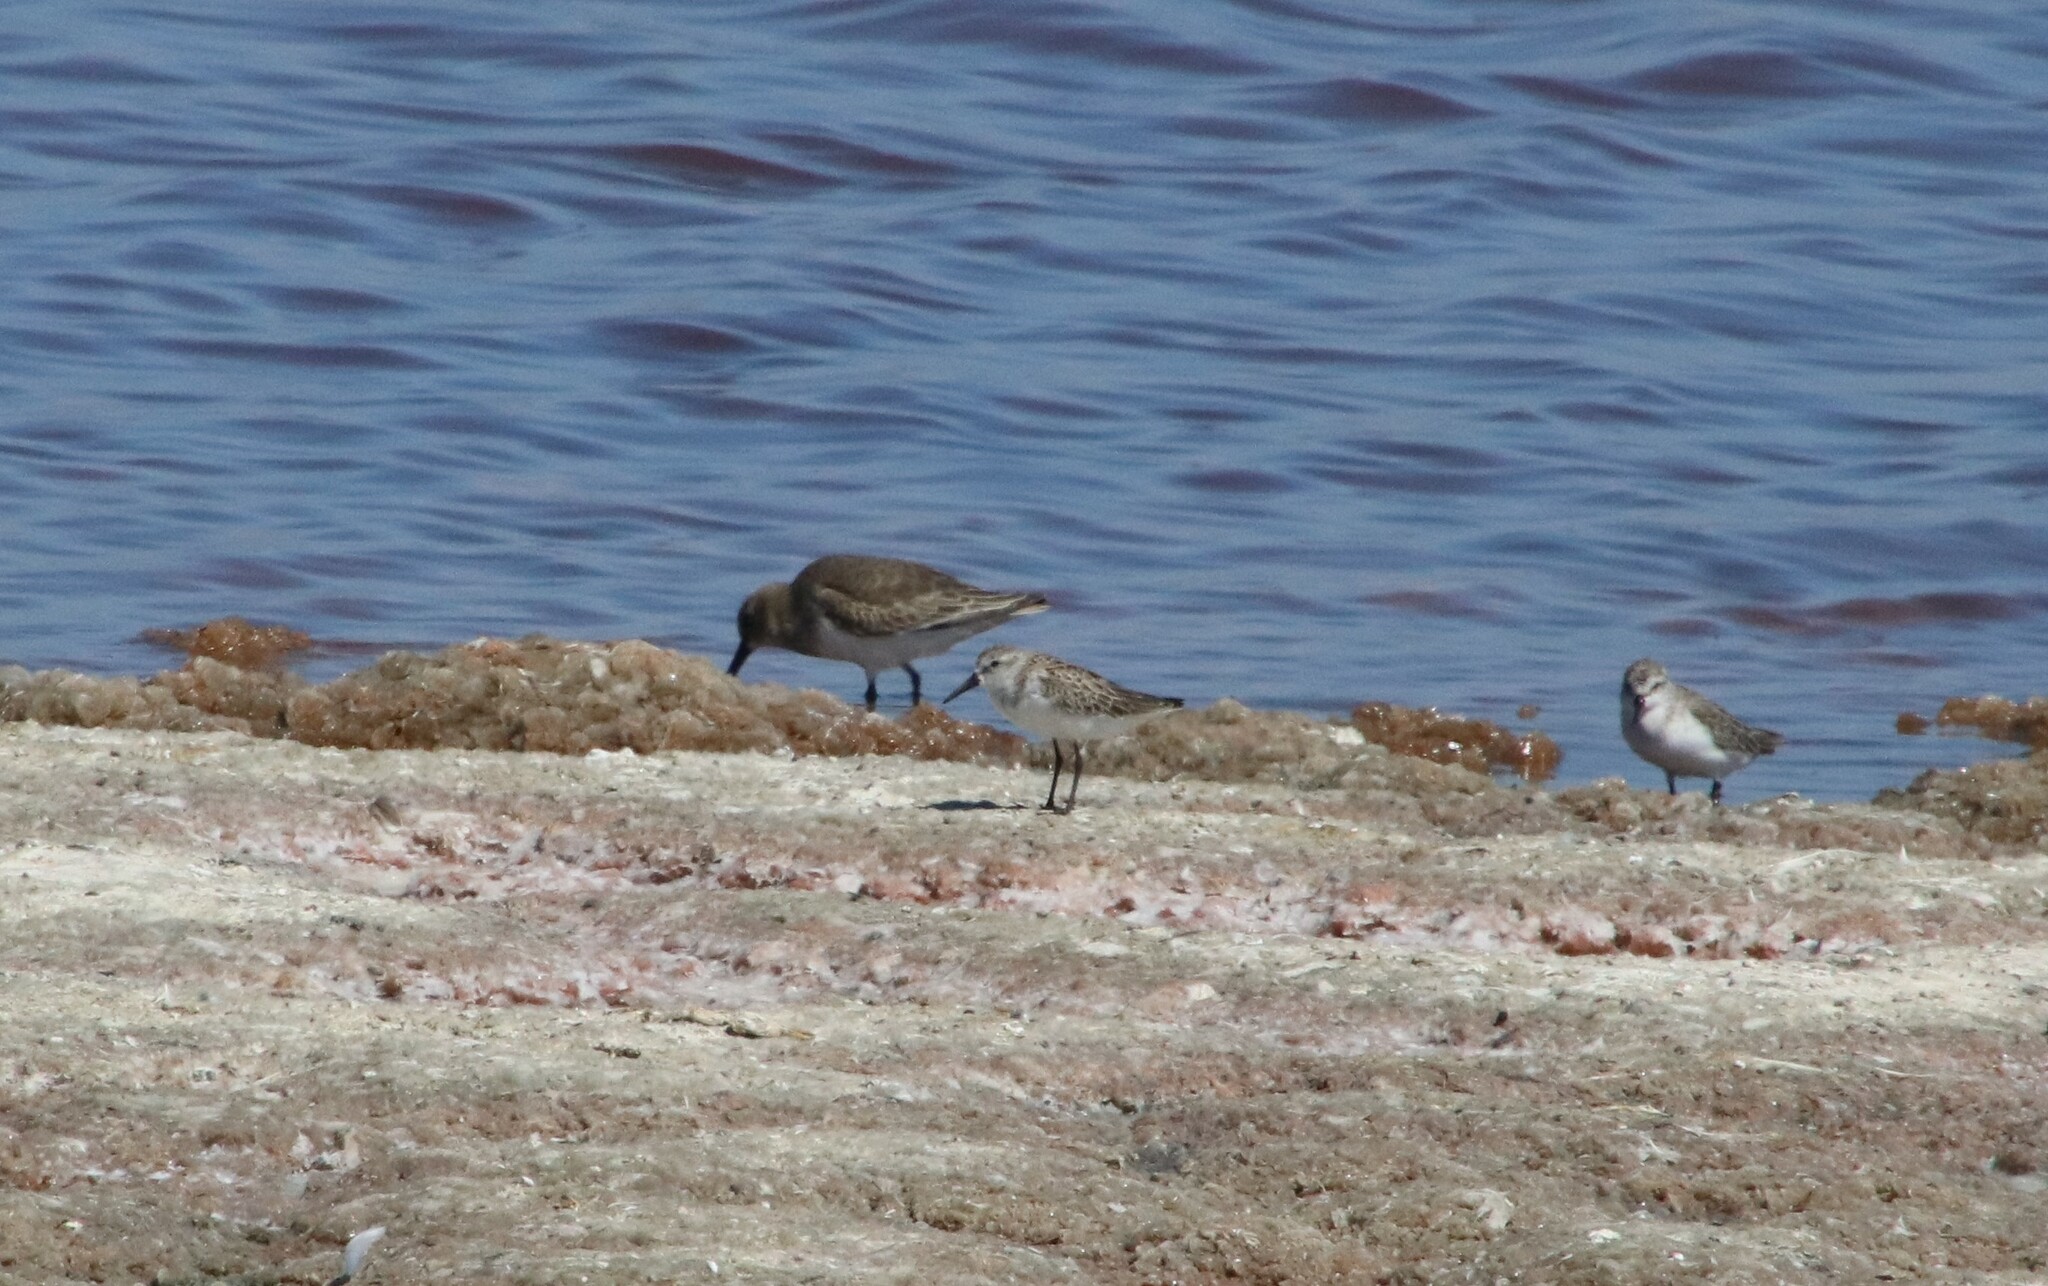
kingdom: Animalia
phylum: Chordata
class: Aves
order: Charadriiformes
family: Scolopacidae
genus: Calidris
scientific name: Calidris alpina
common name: Dunlin
